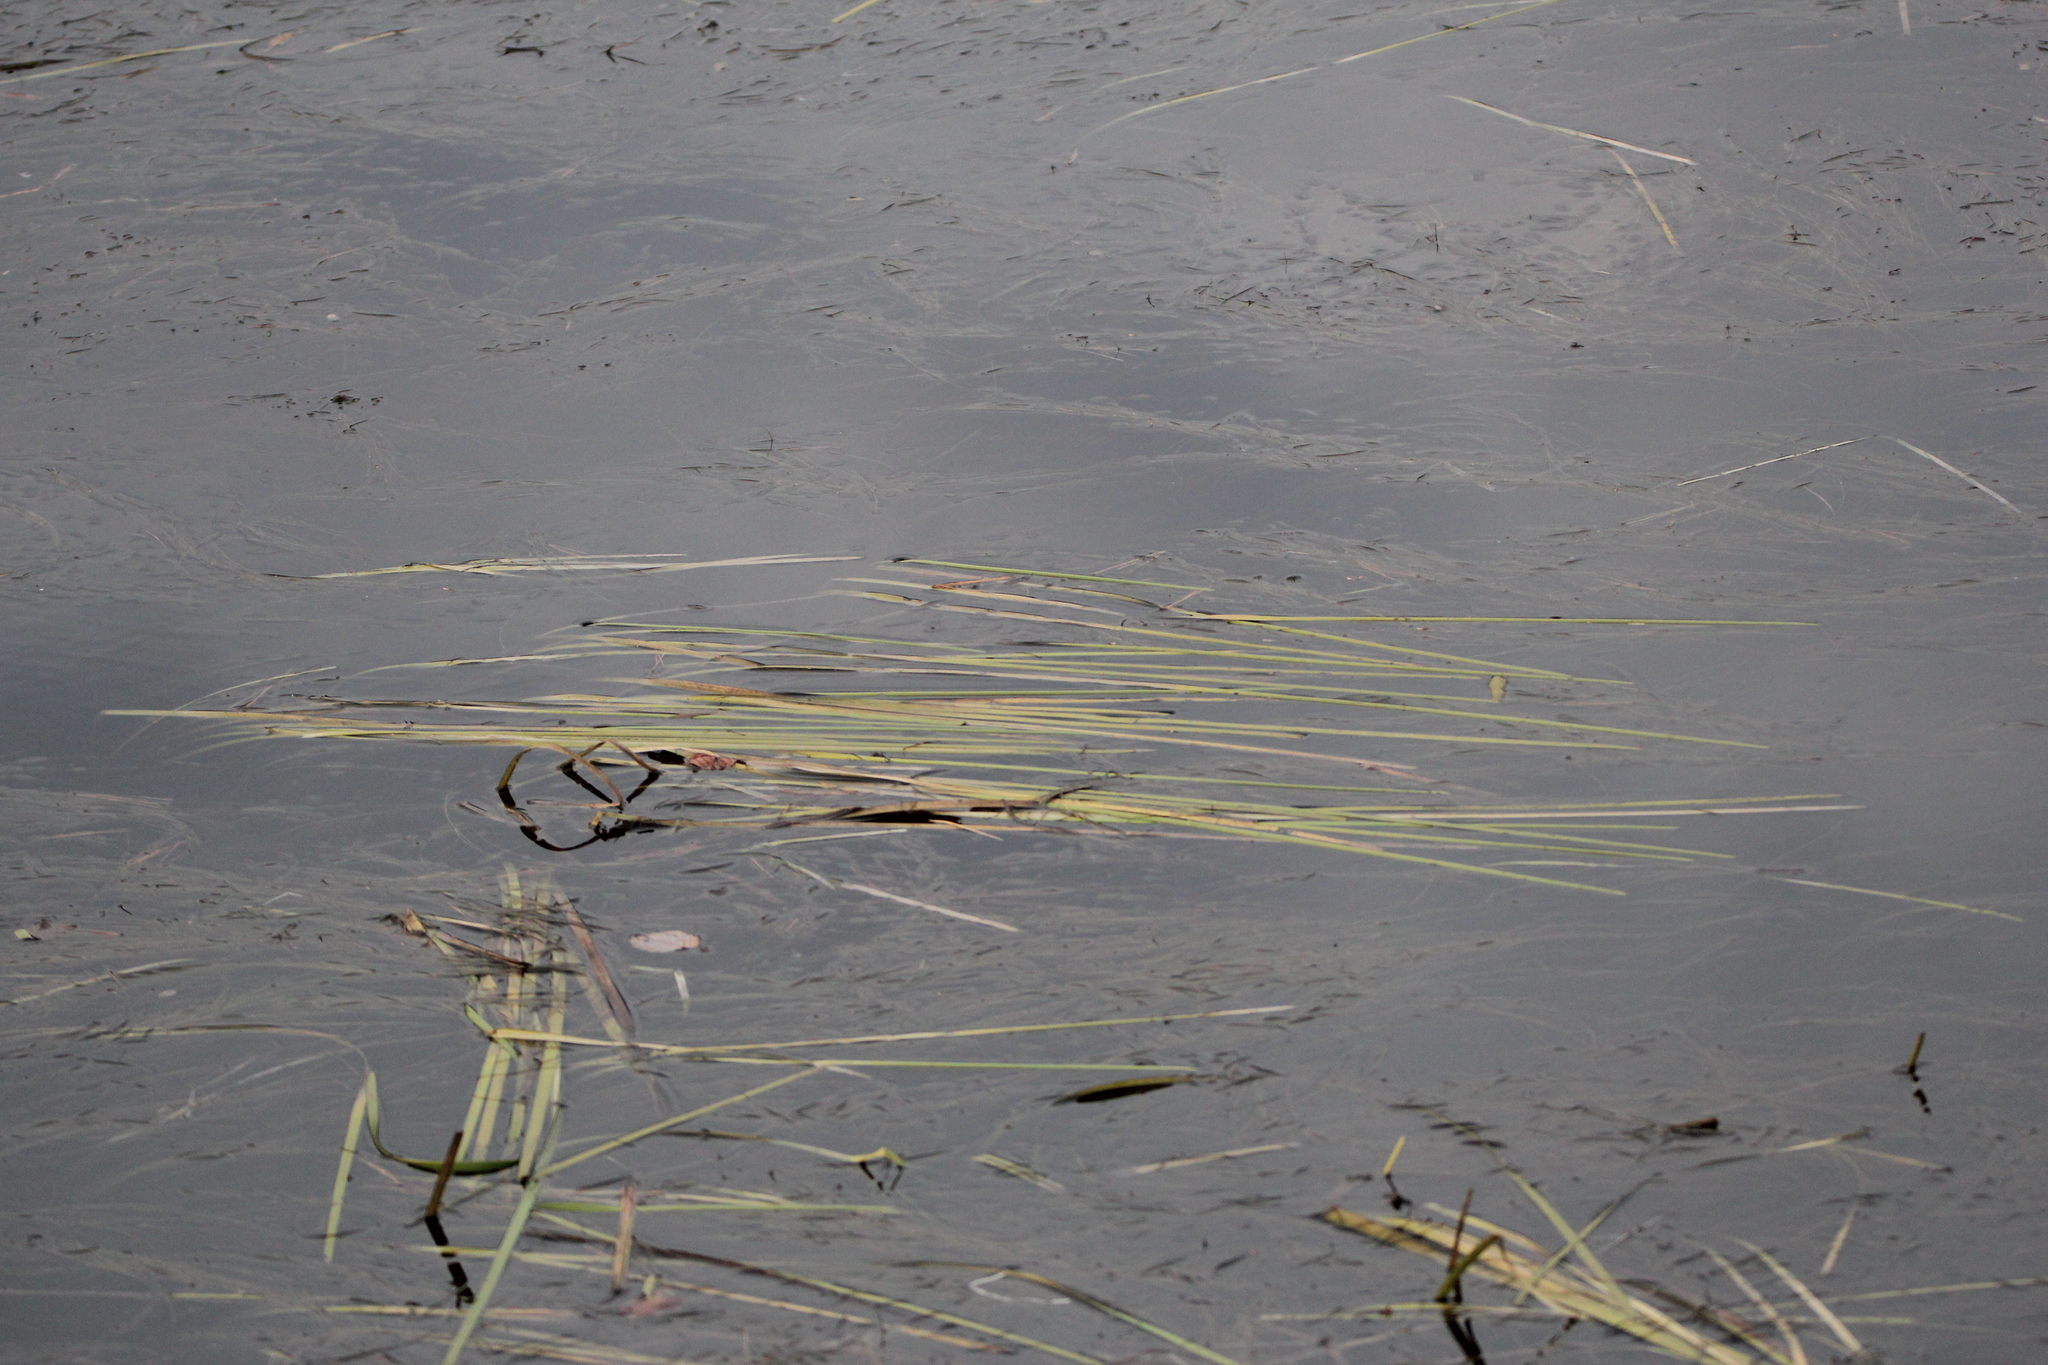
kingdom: Plantae
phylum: Tracheophyta
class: Liliopsida
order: Poales
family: Typhaceae
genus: Sparganium
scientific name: Sparganium fluctuans
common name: Floating burreed
